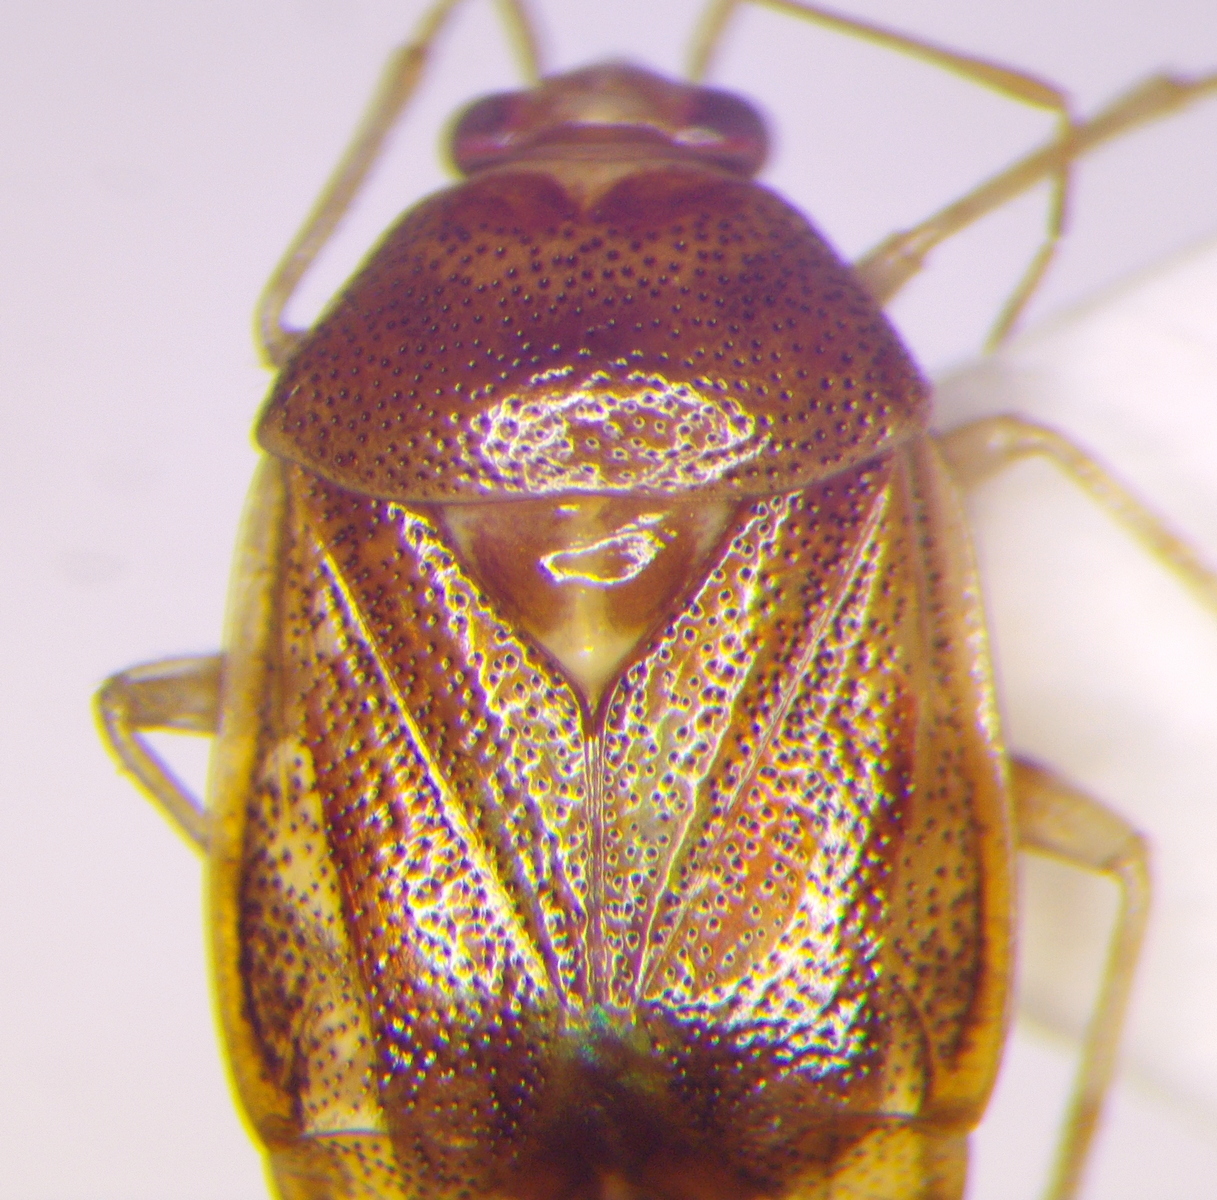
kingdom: Animalia
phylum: Arthropoda
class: Insecta
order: Hemiptera
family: Miridae
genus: Deraeocoris
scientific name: Deraeocoris lutescens
